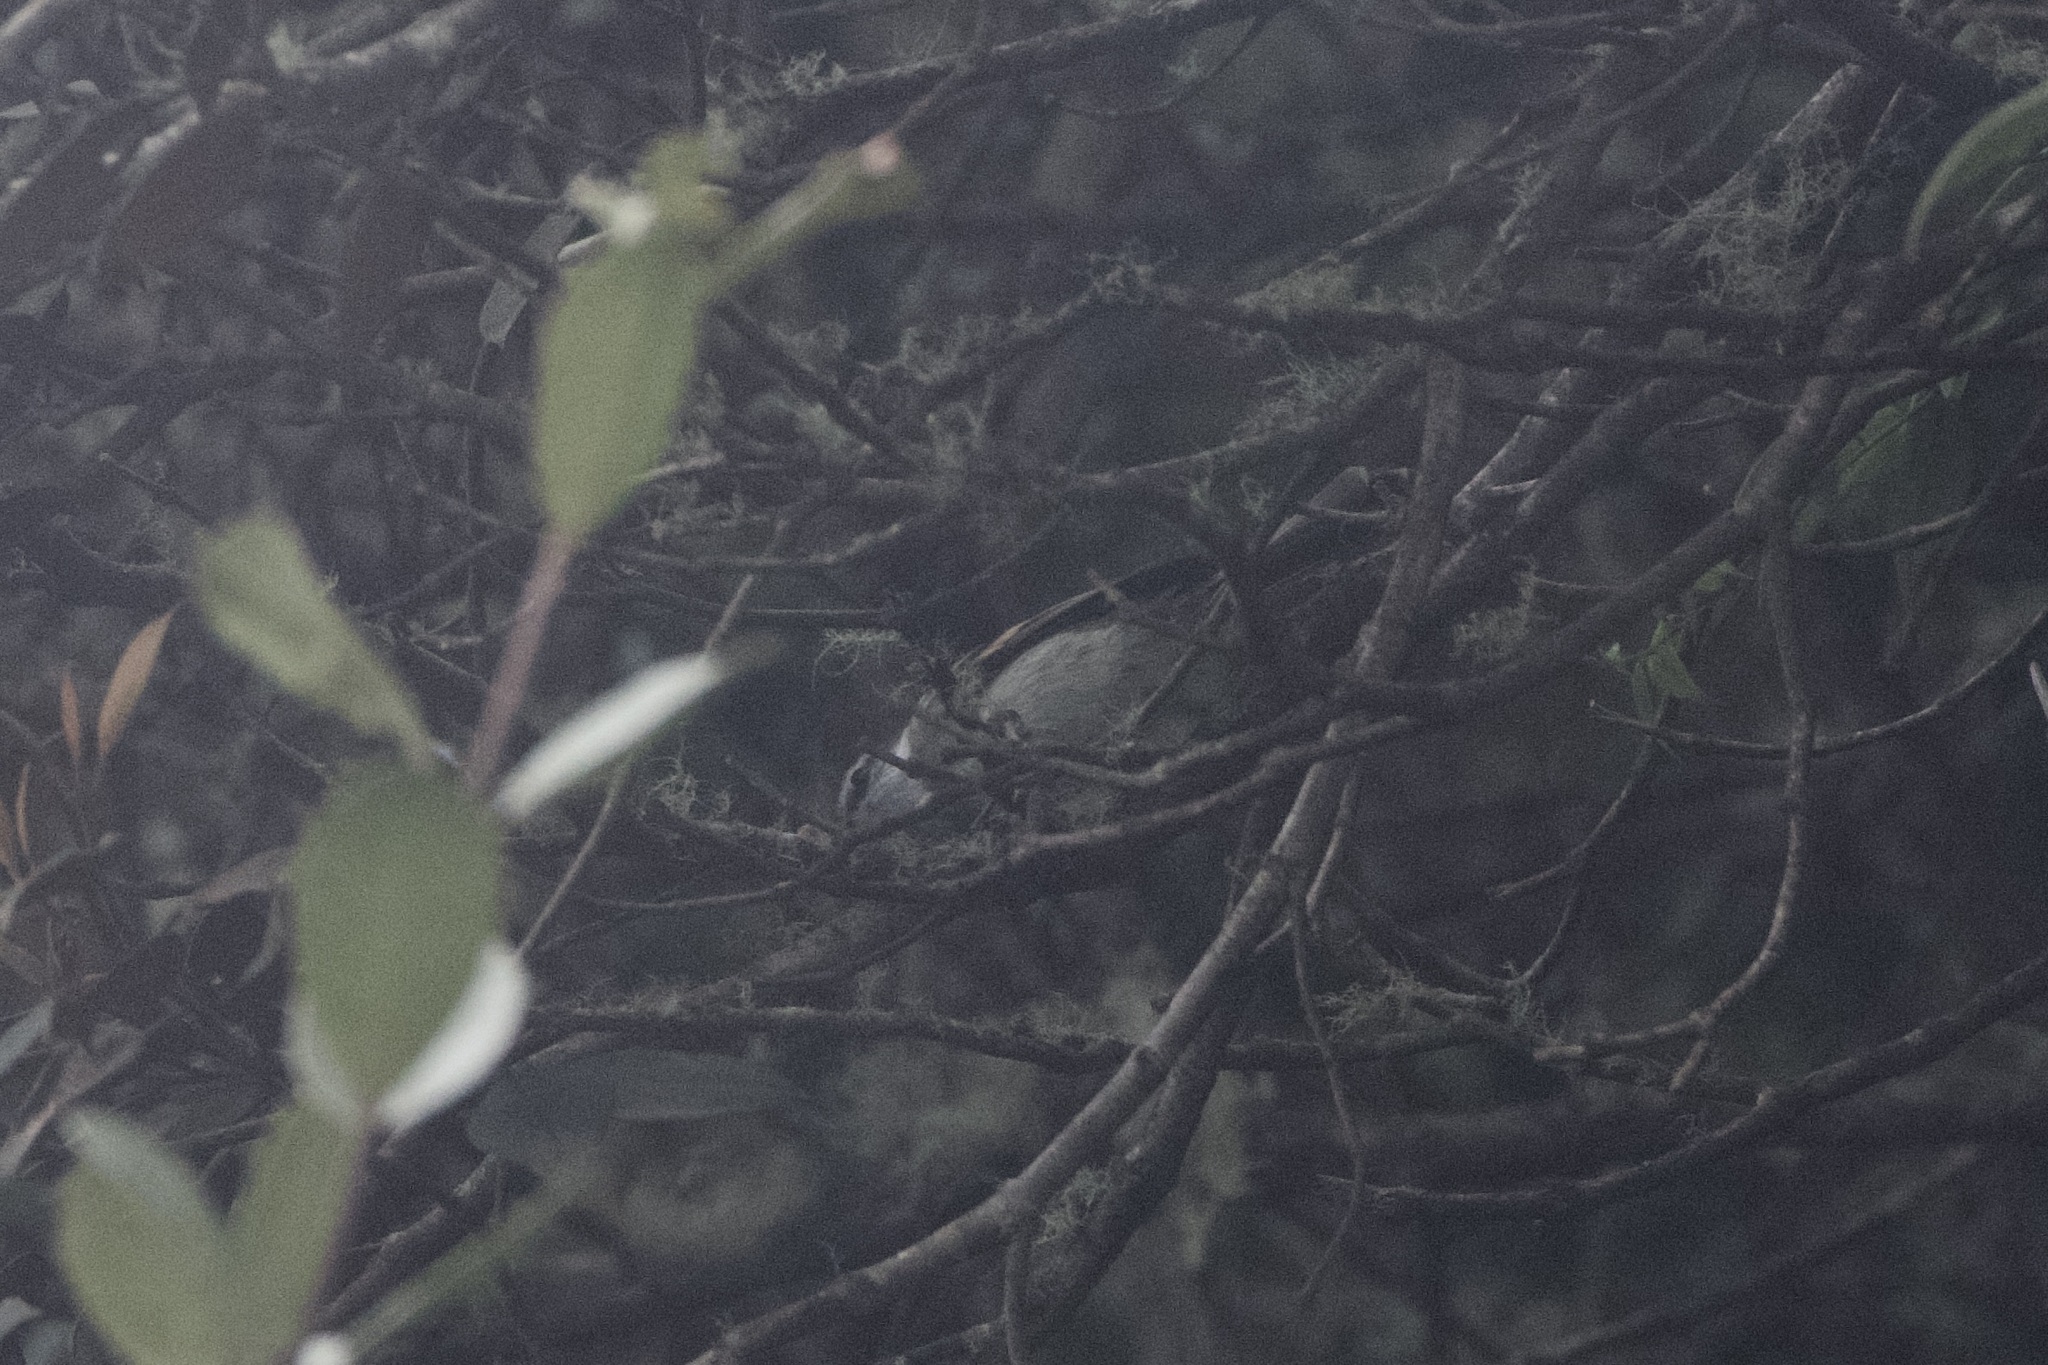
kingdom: Animalia
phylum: Chordata
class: Aves
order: Passeriformes
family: Tyrannidae
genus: Mecocerculus
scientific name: Mecocerculus leucophrys
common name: White-throated tyrannulet
